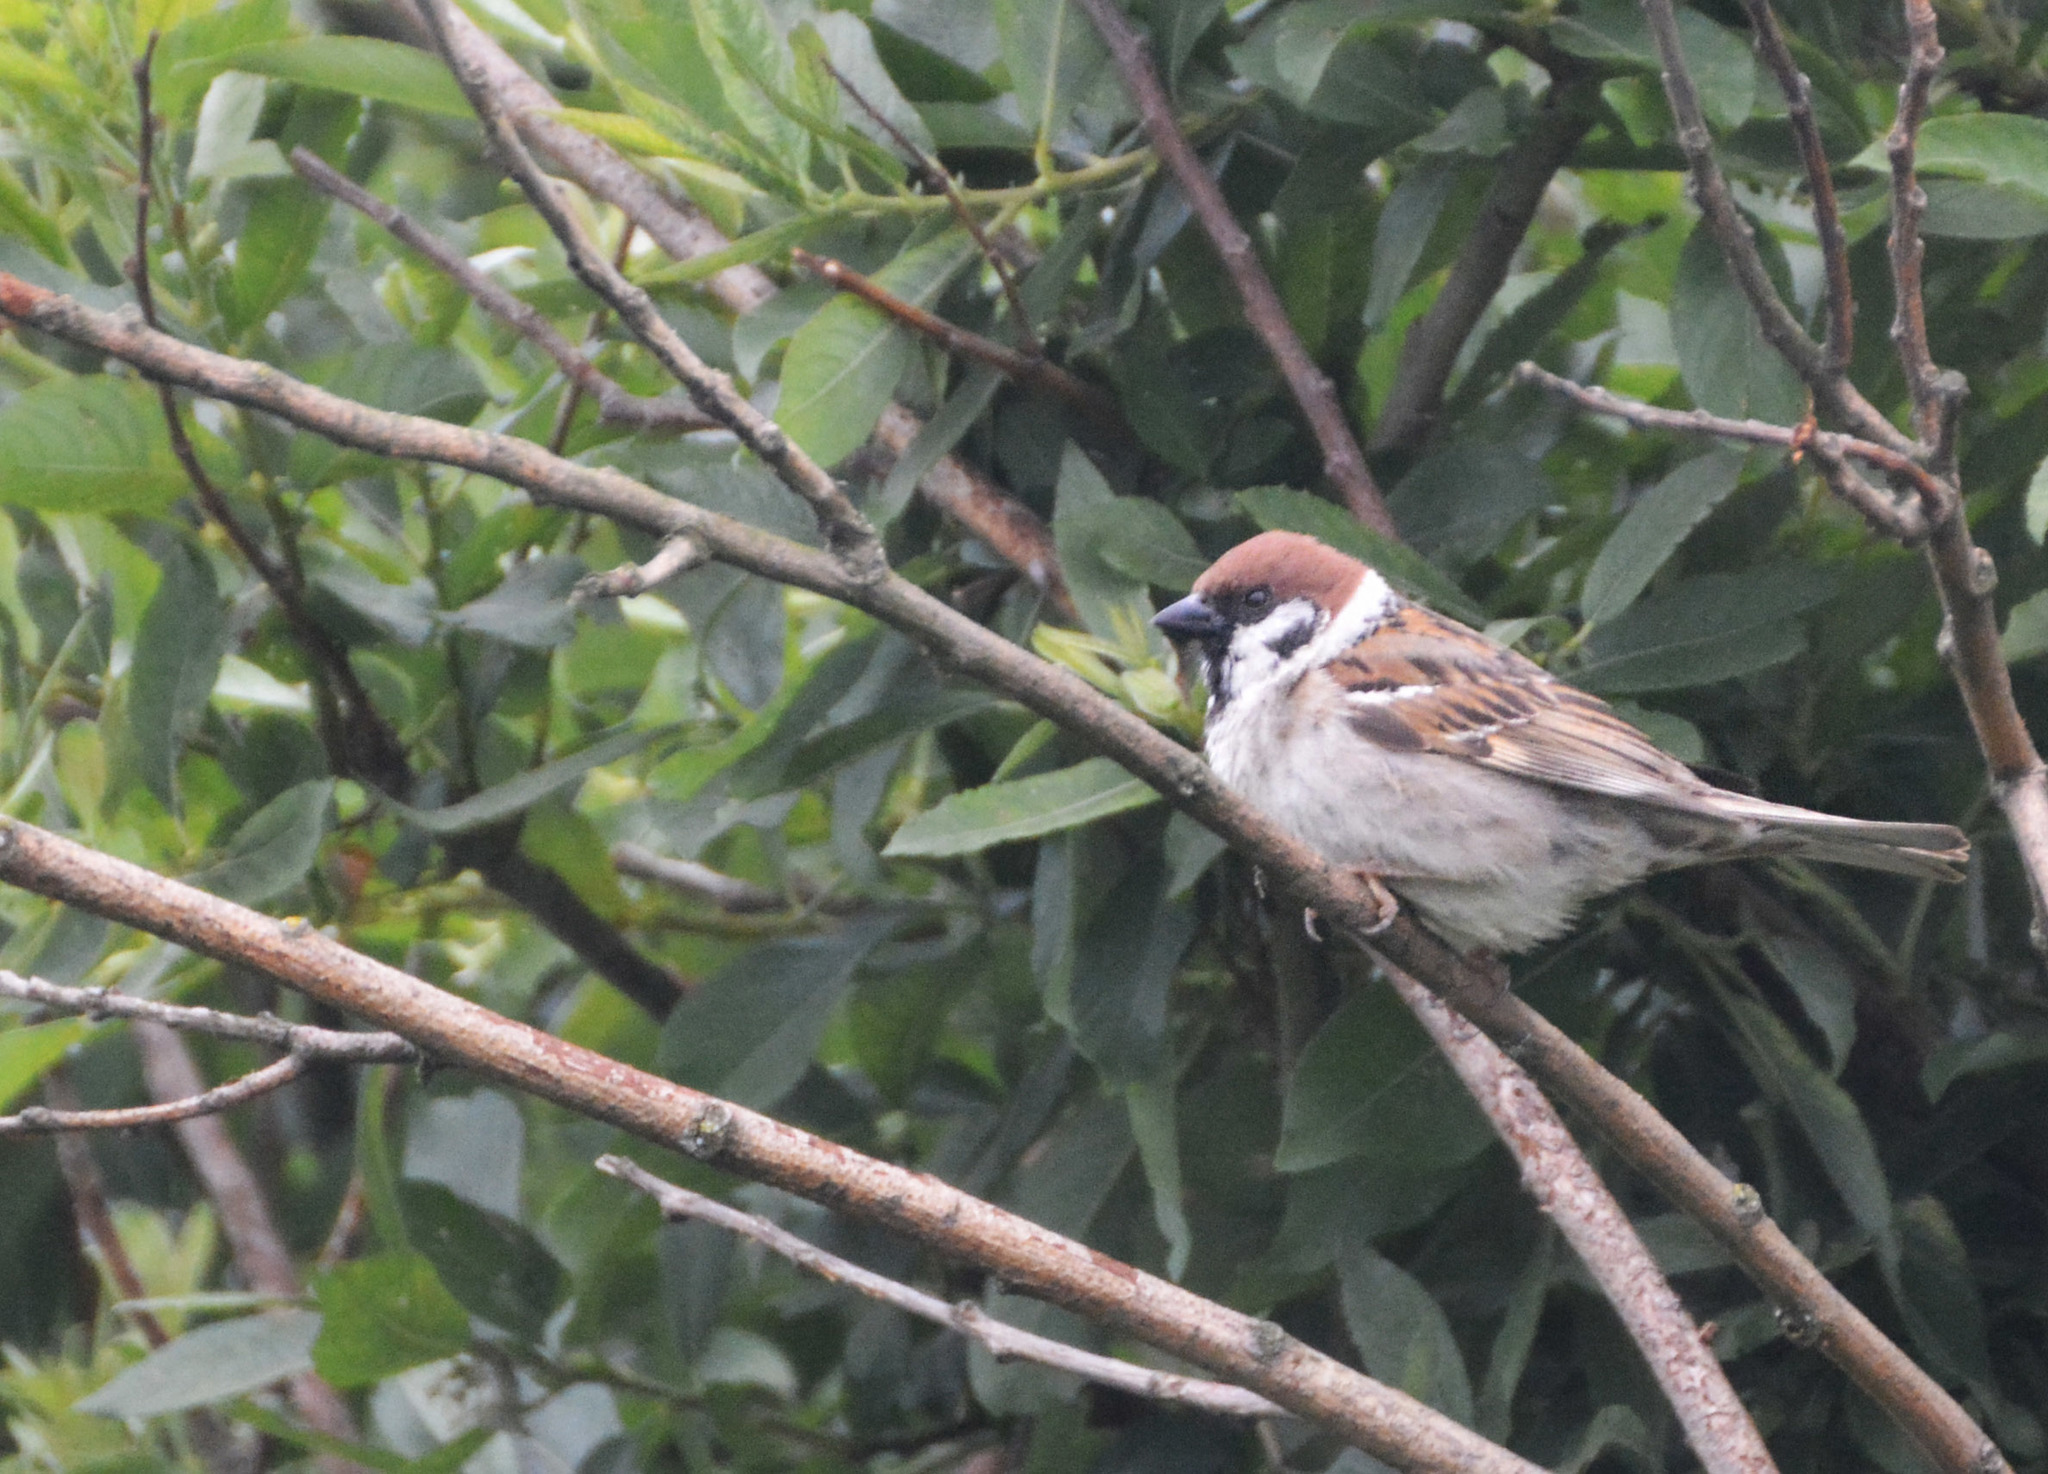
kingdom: Animalia
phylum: Chordata
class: Aves
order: Passeriformes
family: Passeridae
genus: Passer
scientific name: Passer montanus
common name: Eurasian tree sparrow
